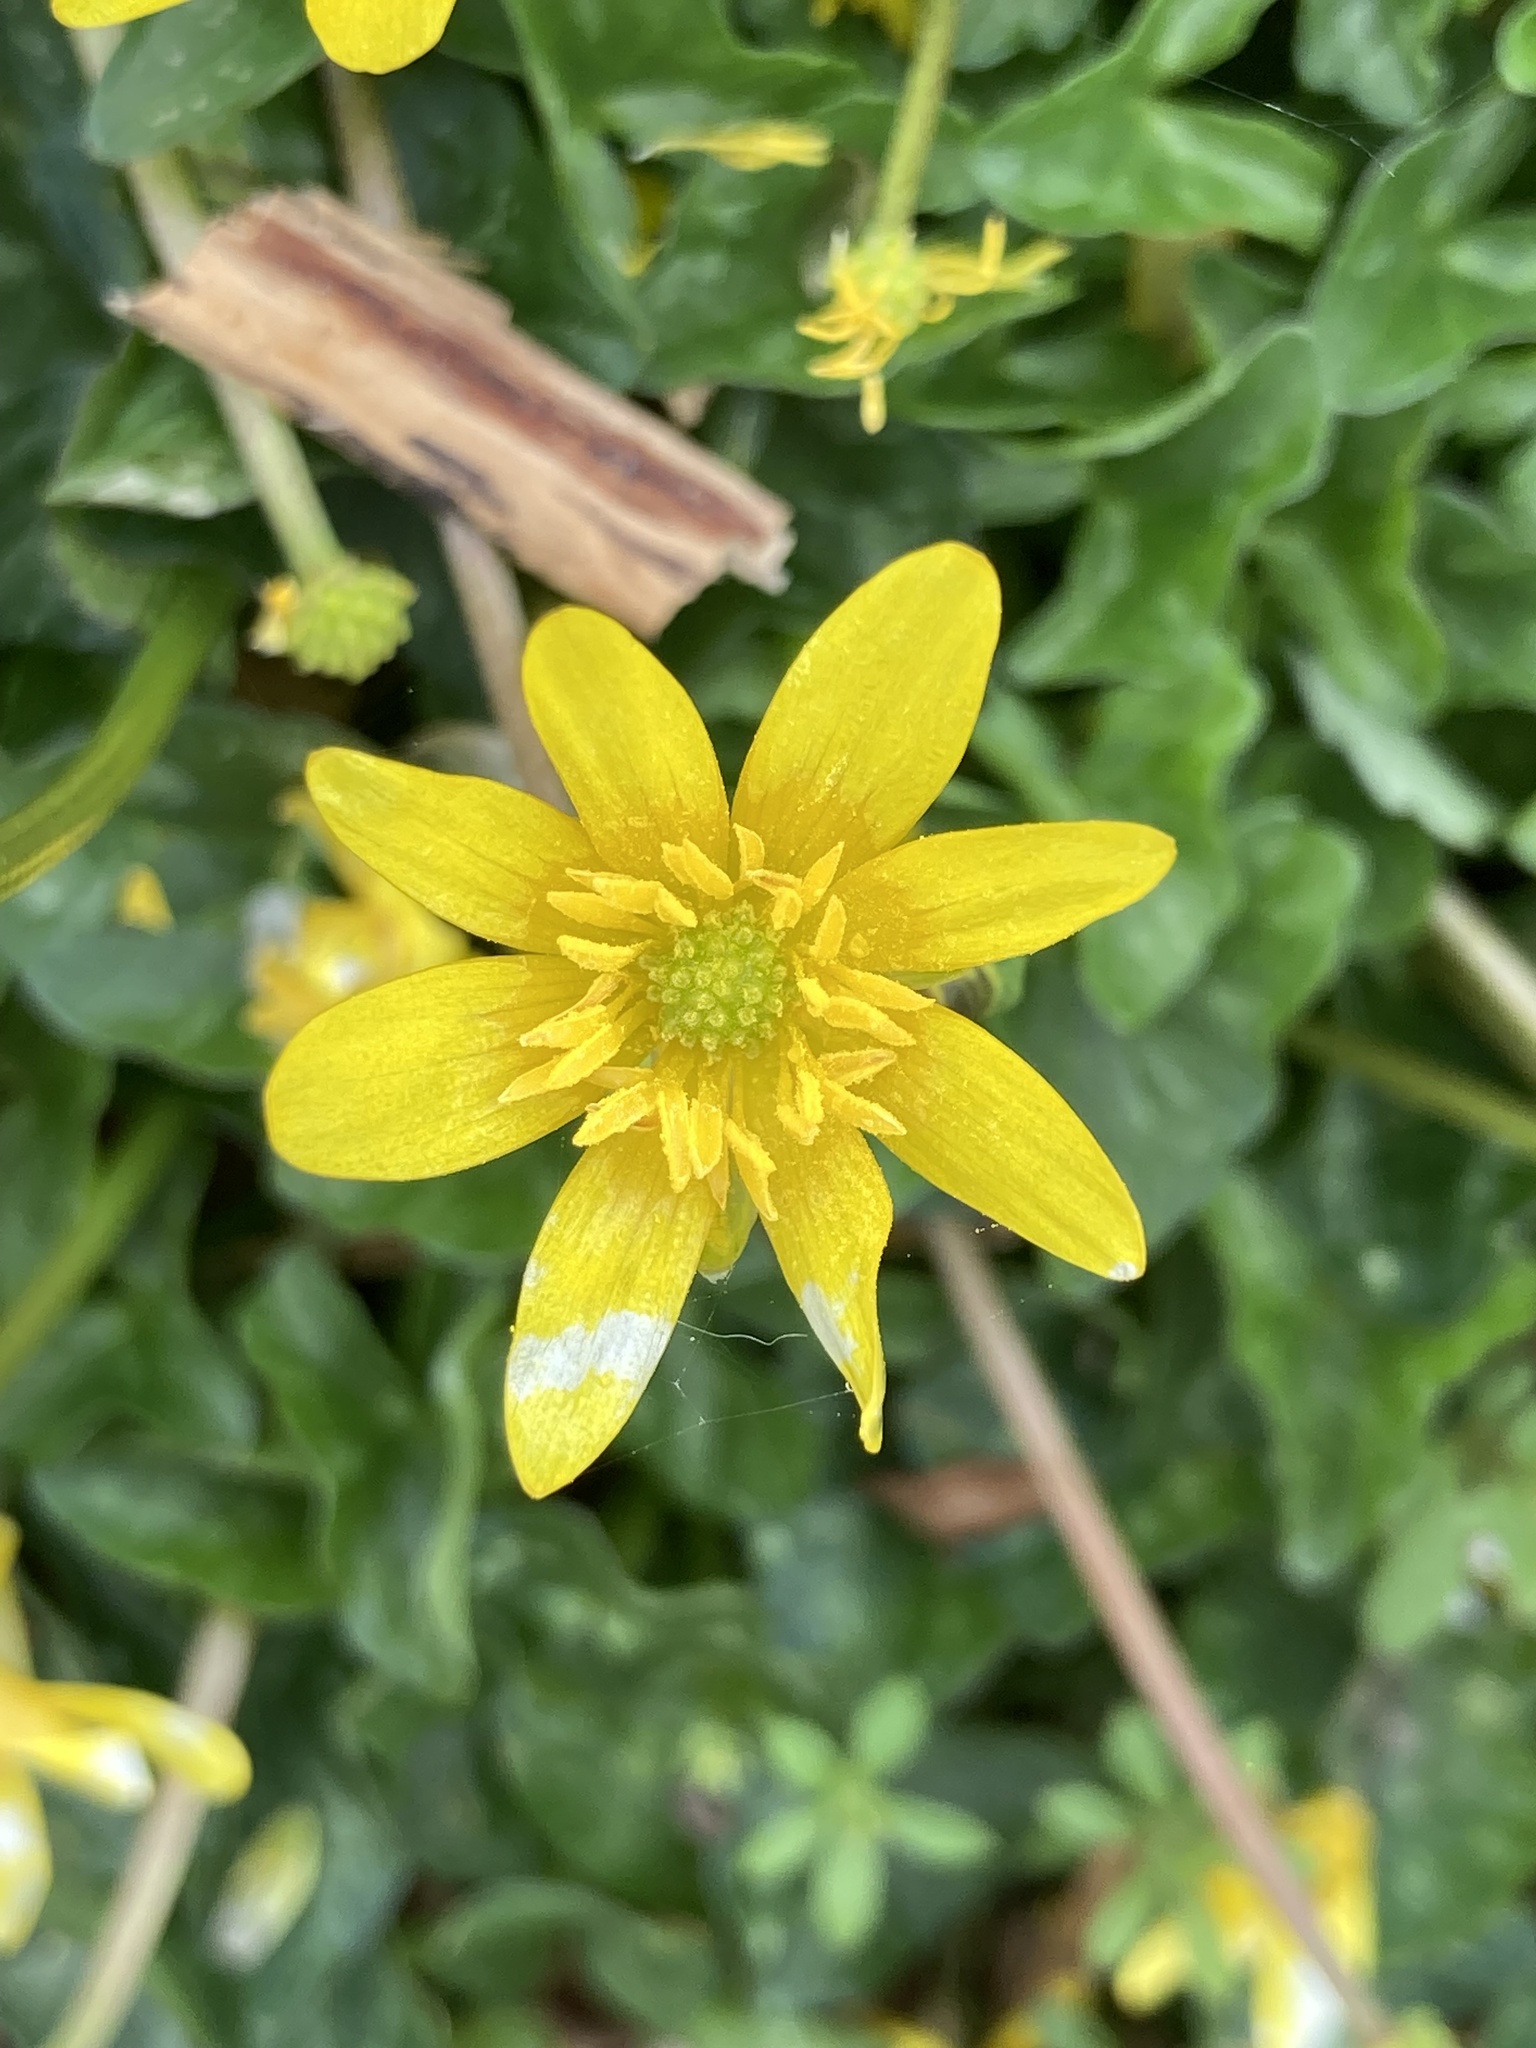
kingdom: Plantae
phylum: Tracheophyta
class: Magnoliopsida
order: Ranunculales
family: Ranunculaceae
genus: Ficaria
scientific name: Ficaria verna
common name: Lesser celandine
